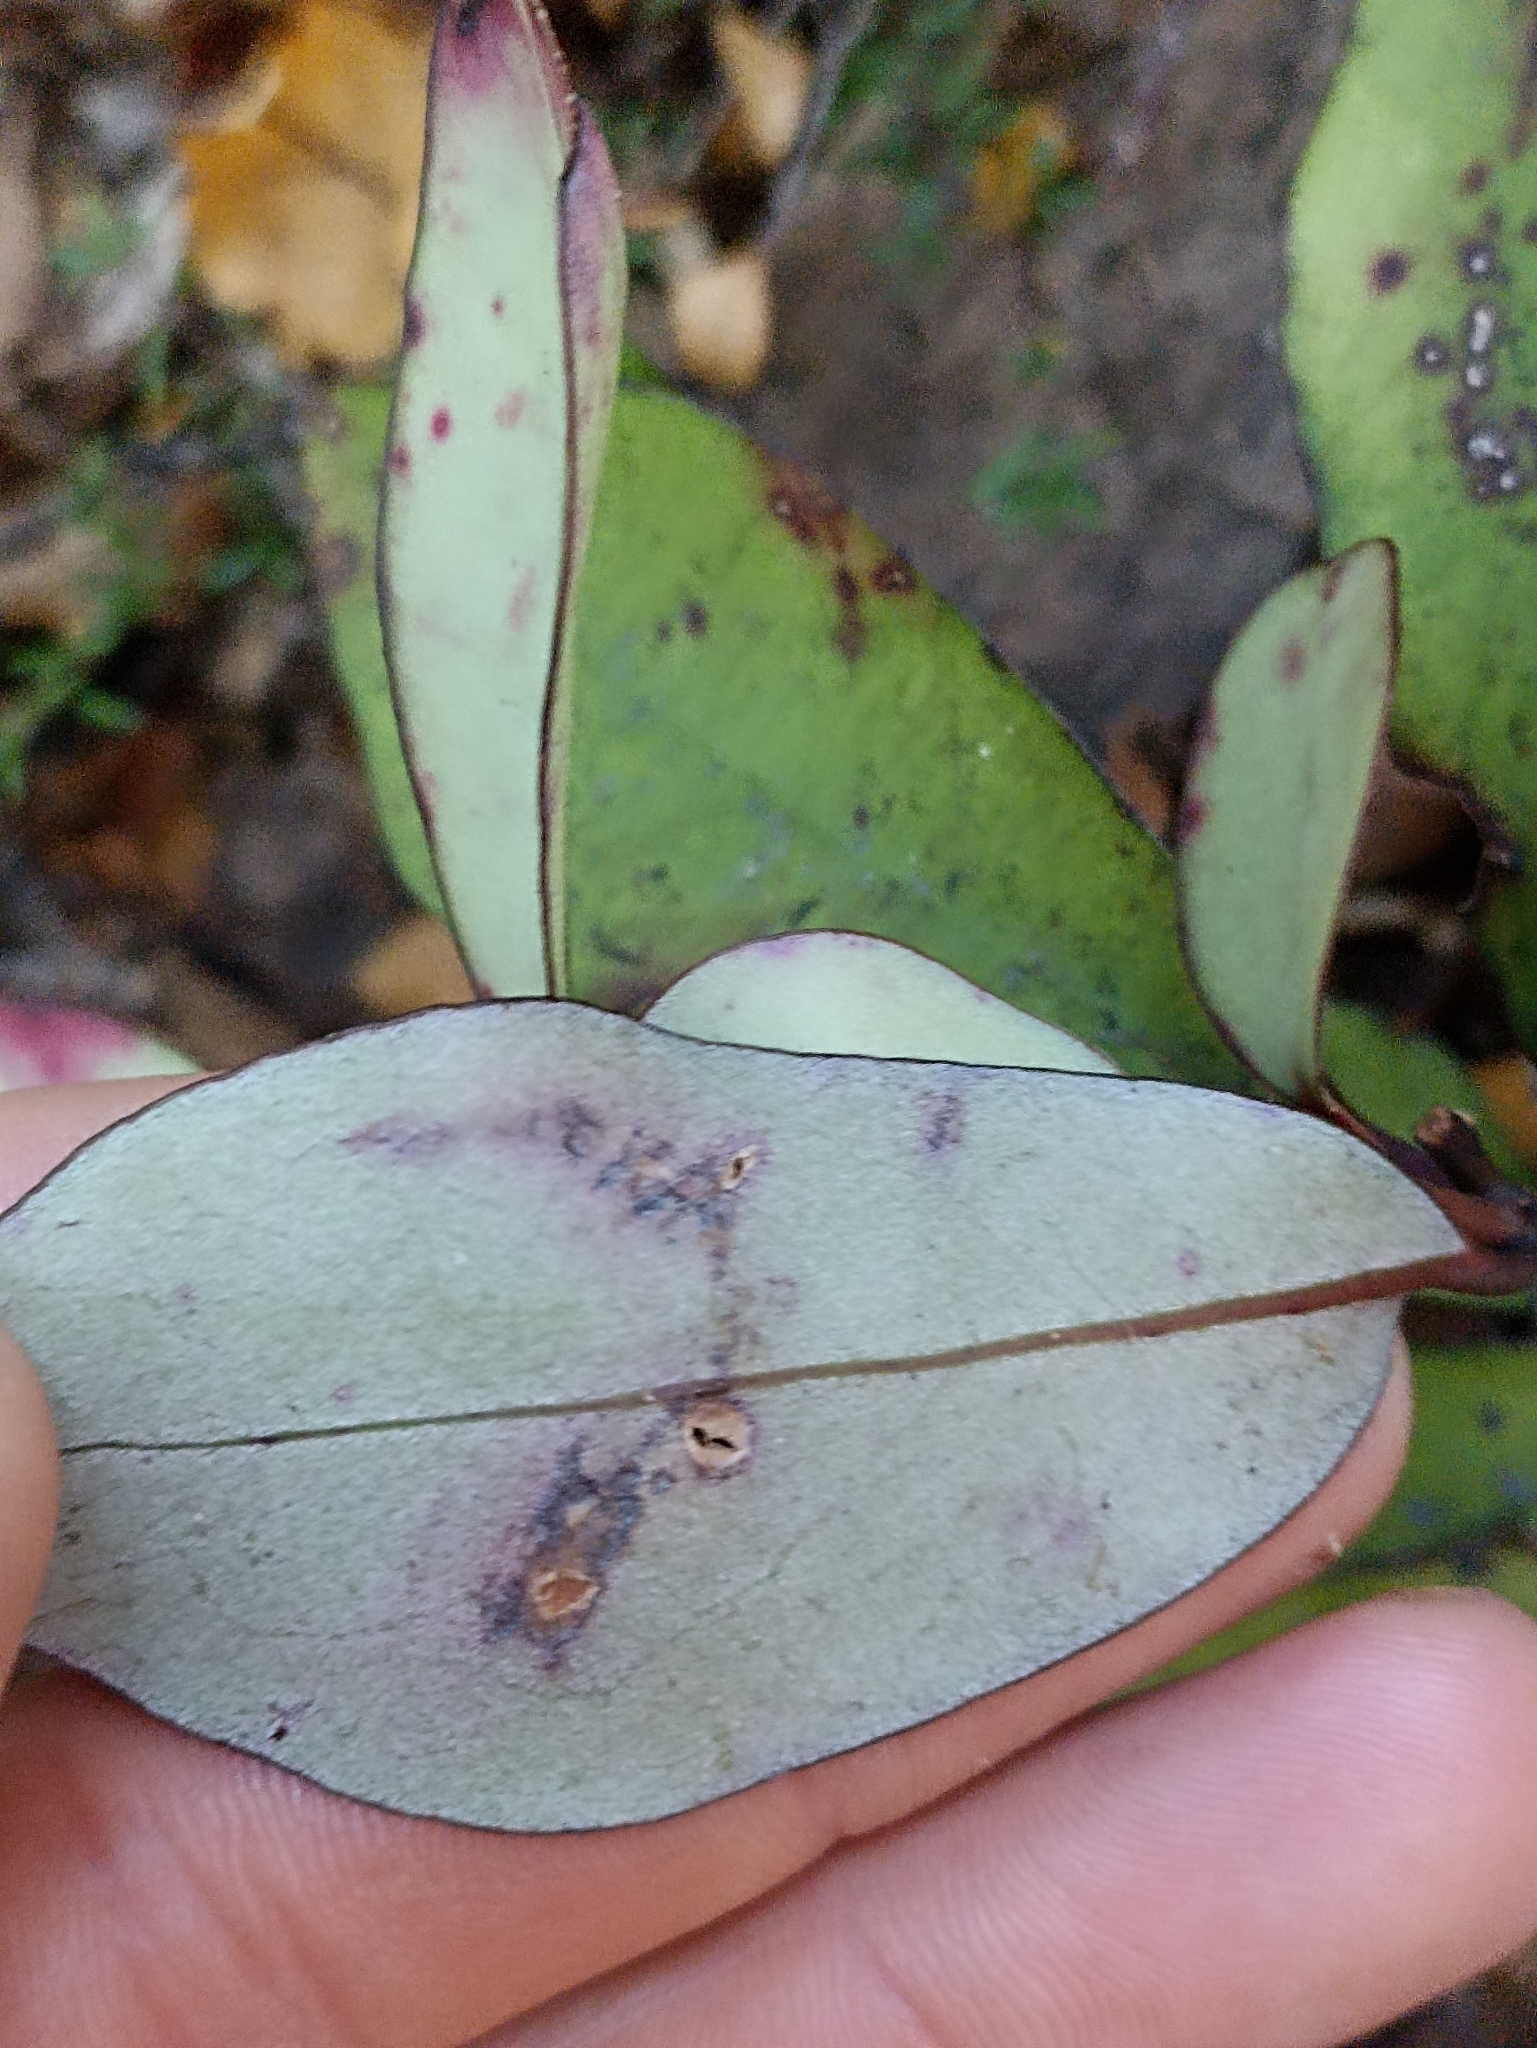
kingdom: Plantae
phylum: Tracheophyta
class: Magnoliopsida
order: Canellales
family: Winteraceae
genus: Pseudowintera
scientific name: Pseudowintera colorata
